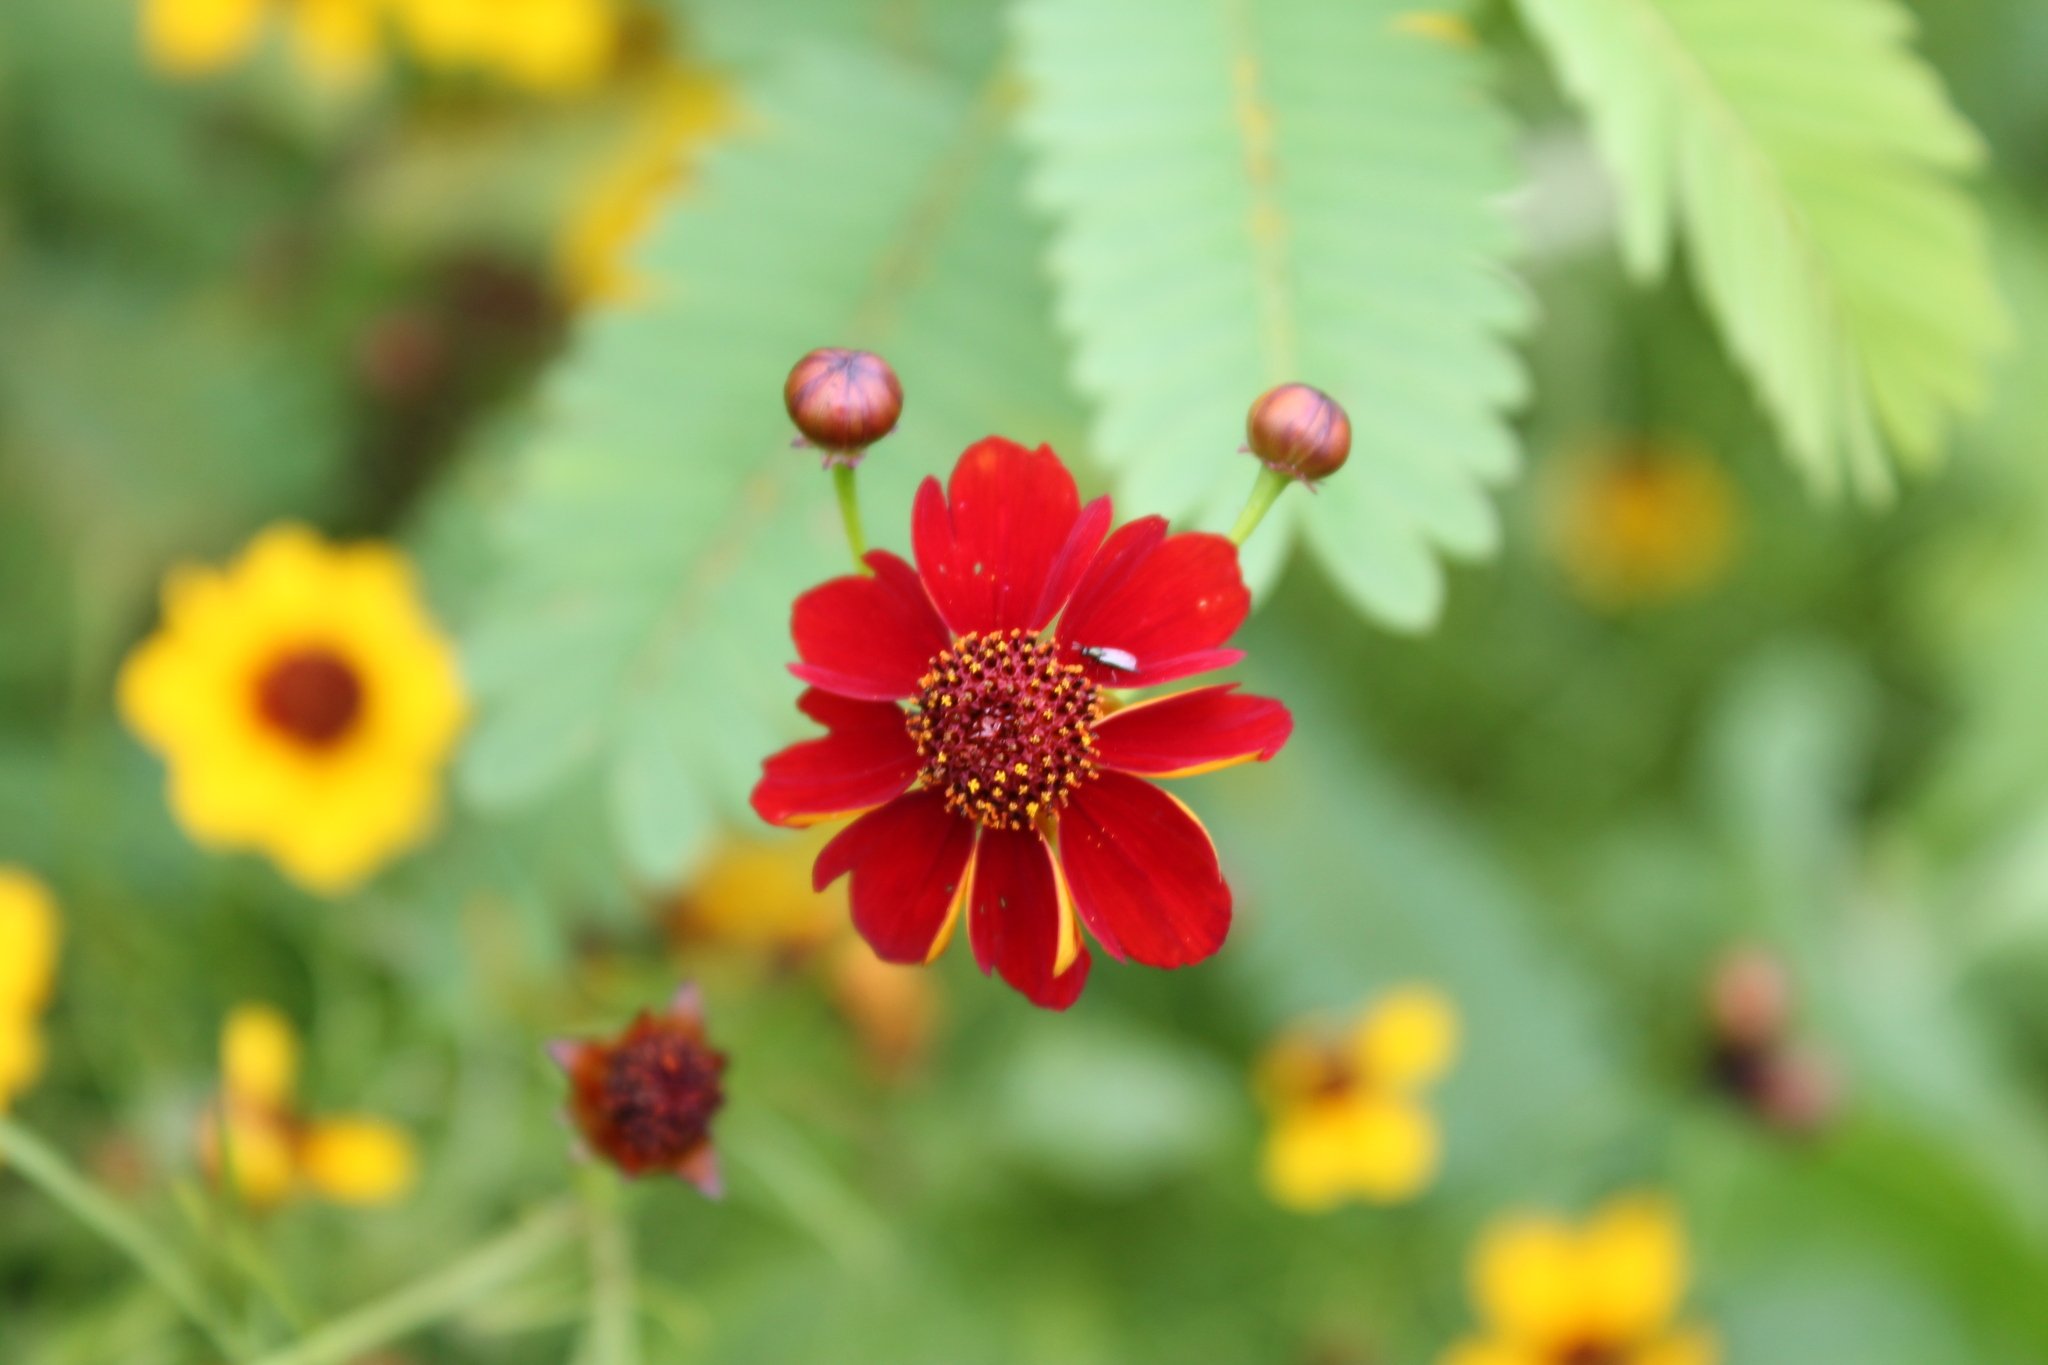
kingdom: Plantae
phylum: Tracheophyta
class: Magnoliopsida
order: Asterales
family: Asteraceae
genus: Coreopsis
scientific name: Coreopsis tinctoria
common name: Garden tickseed
